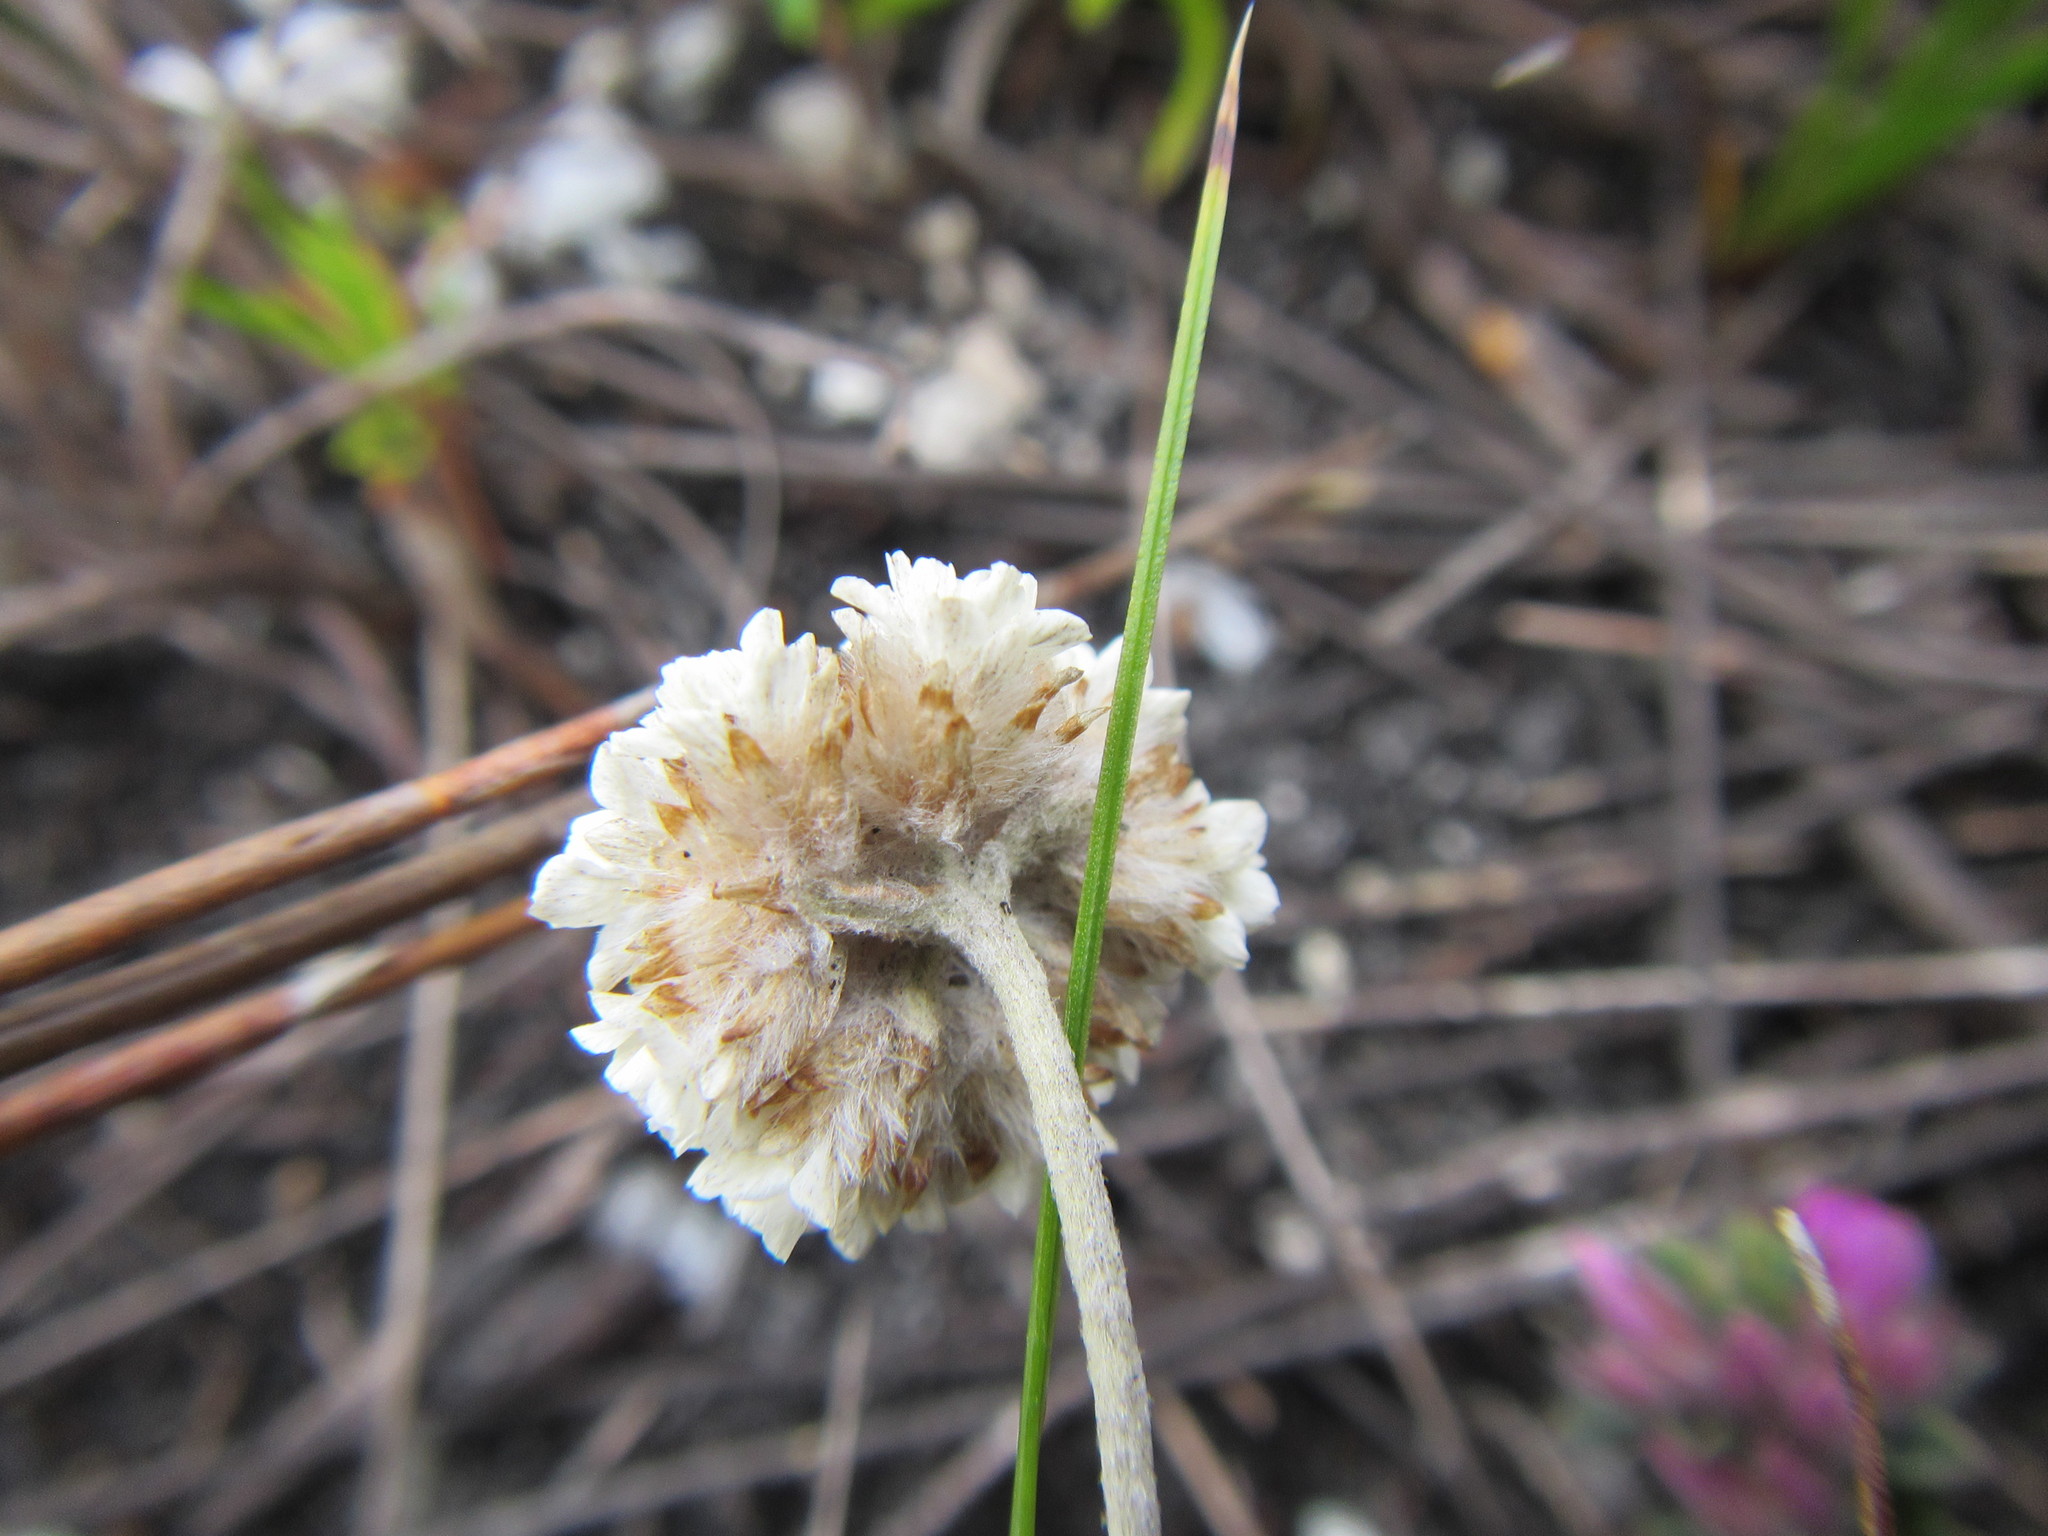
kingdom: Plantae
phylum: Tracheophyta
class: Magnoliopsida
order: Asterales
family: Asteraceae
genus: Anaxeton
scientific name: Anaxeton asperum
